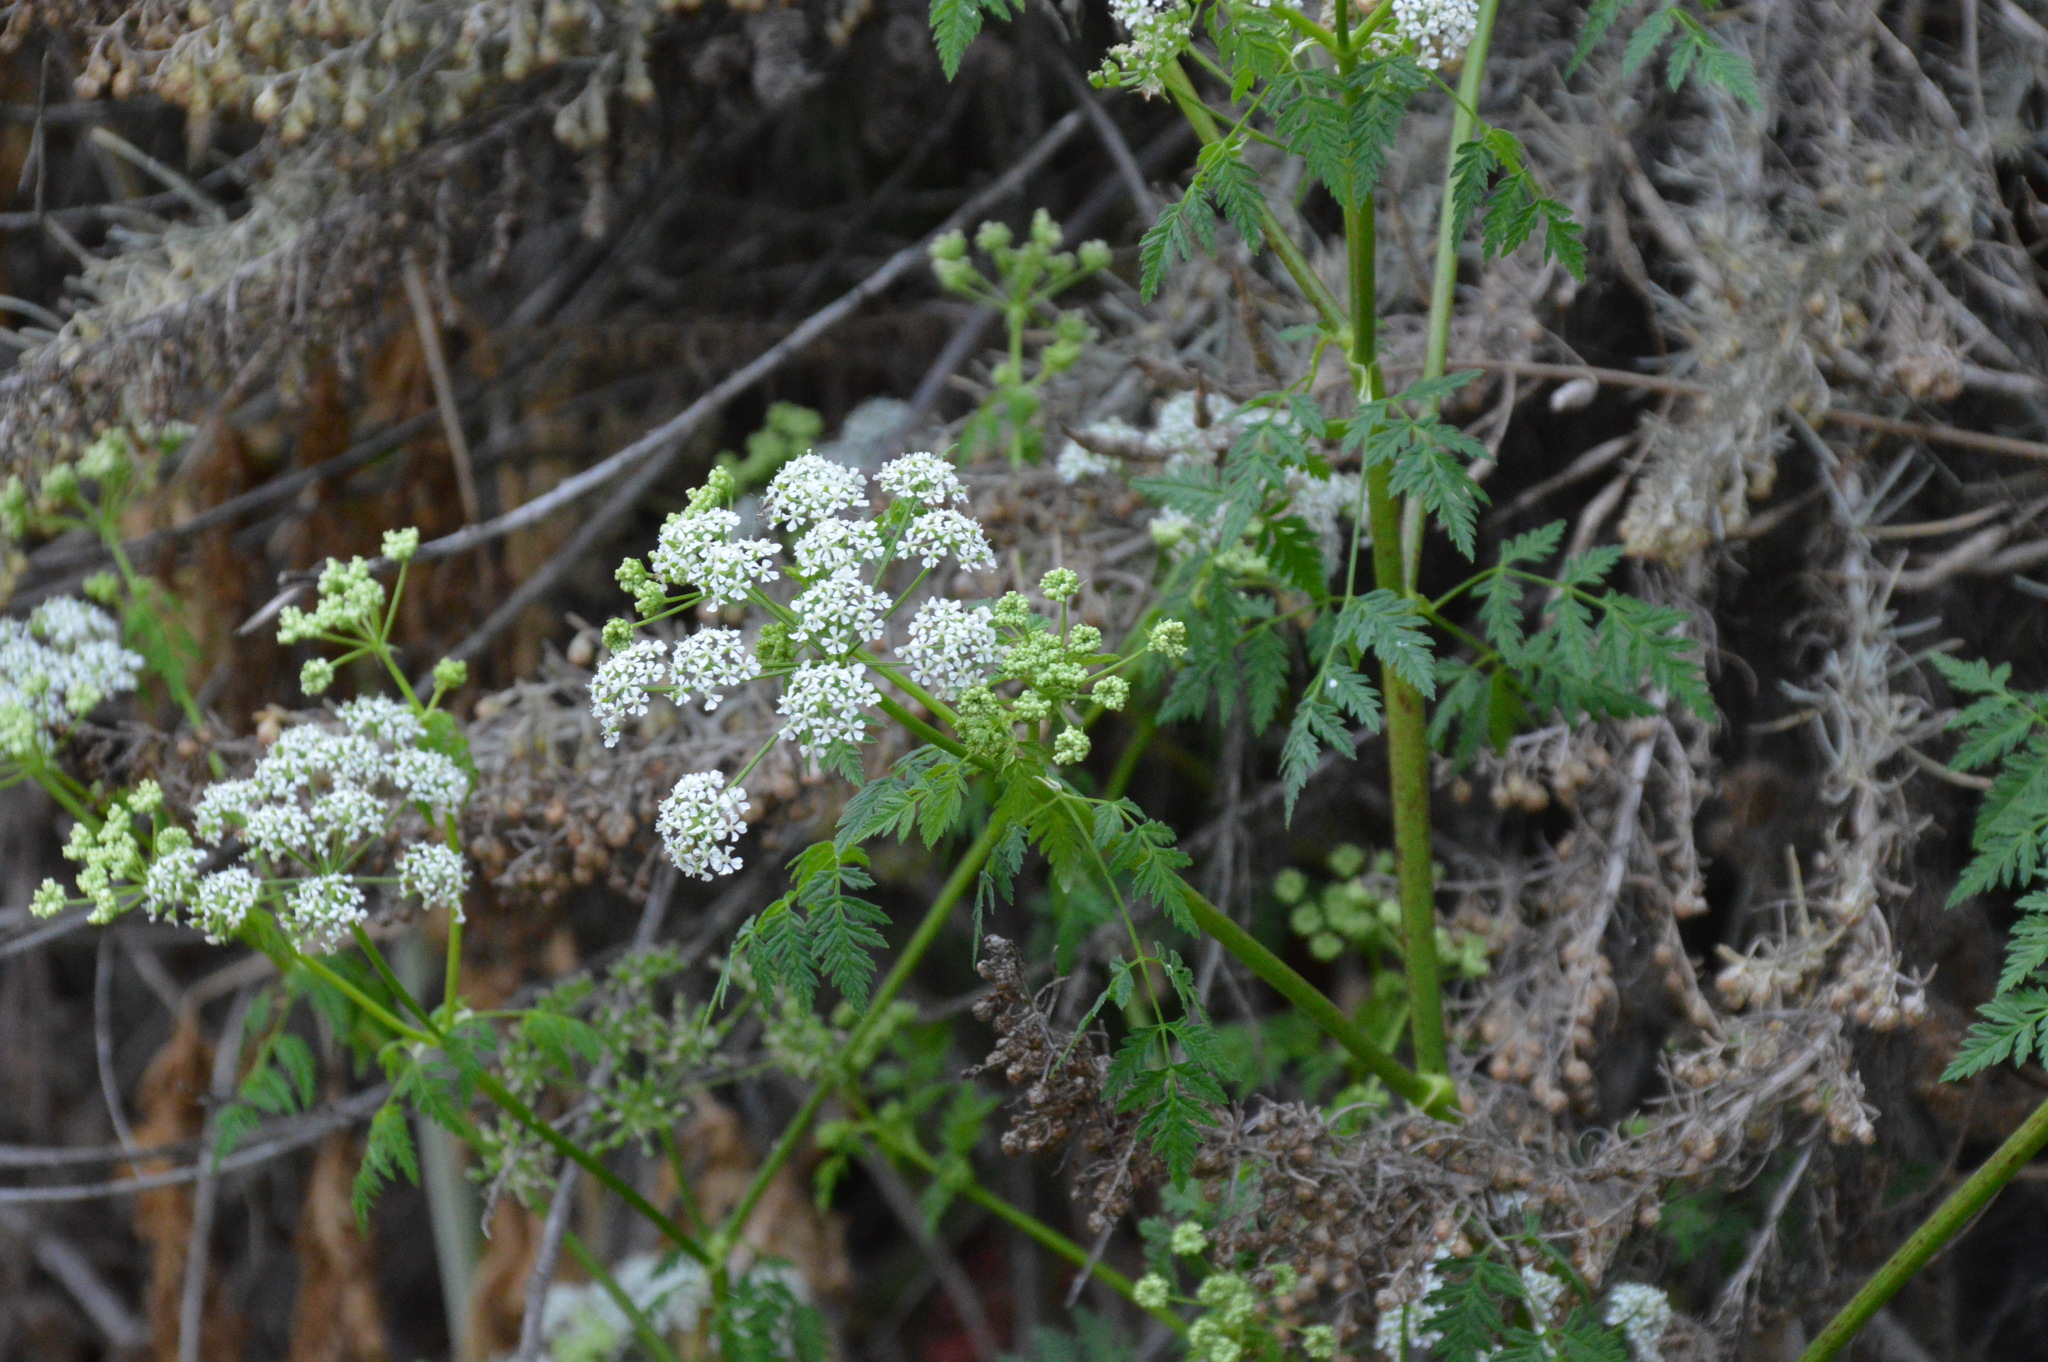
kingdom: Plantae
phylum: Tracheophyta
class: Magnoliopsida
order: Apiales
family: Apiaceae
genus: Conium
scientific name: Conium maculatum
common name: Hemlock
